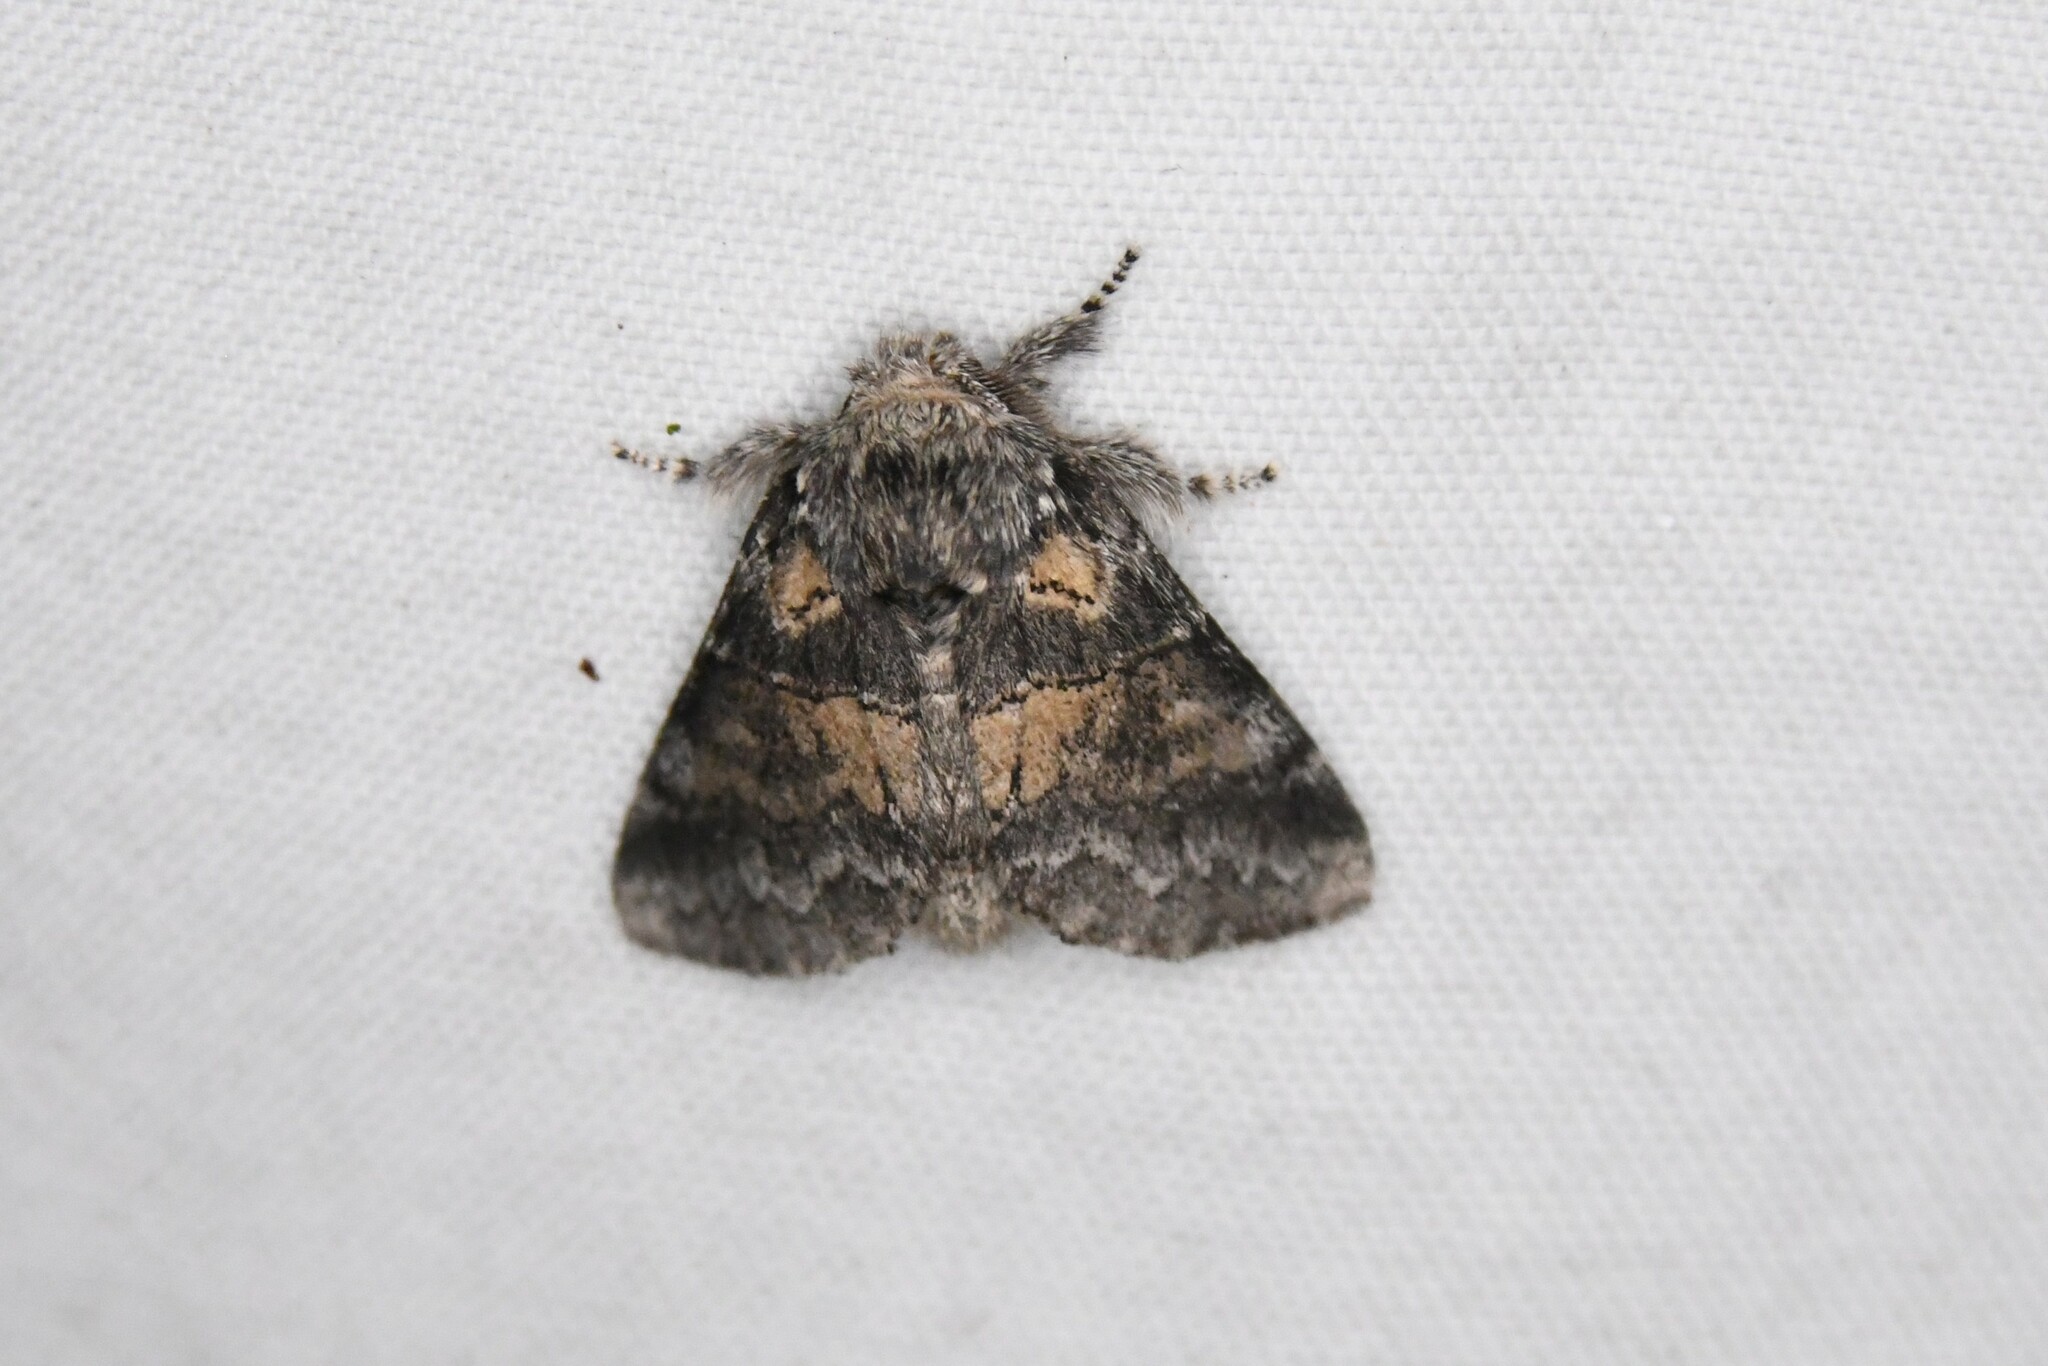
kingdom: Animalia
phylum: Arthropoda
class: Insecta
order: Lepidoptera
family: Notodontidae
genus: Gluphisia
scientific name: Gluphisia septentrionis
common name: Common gluphisia
